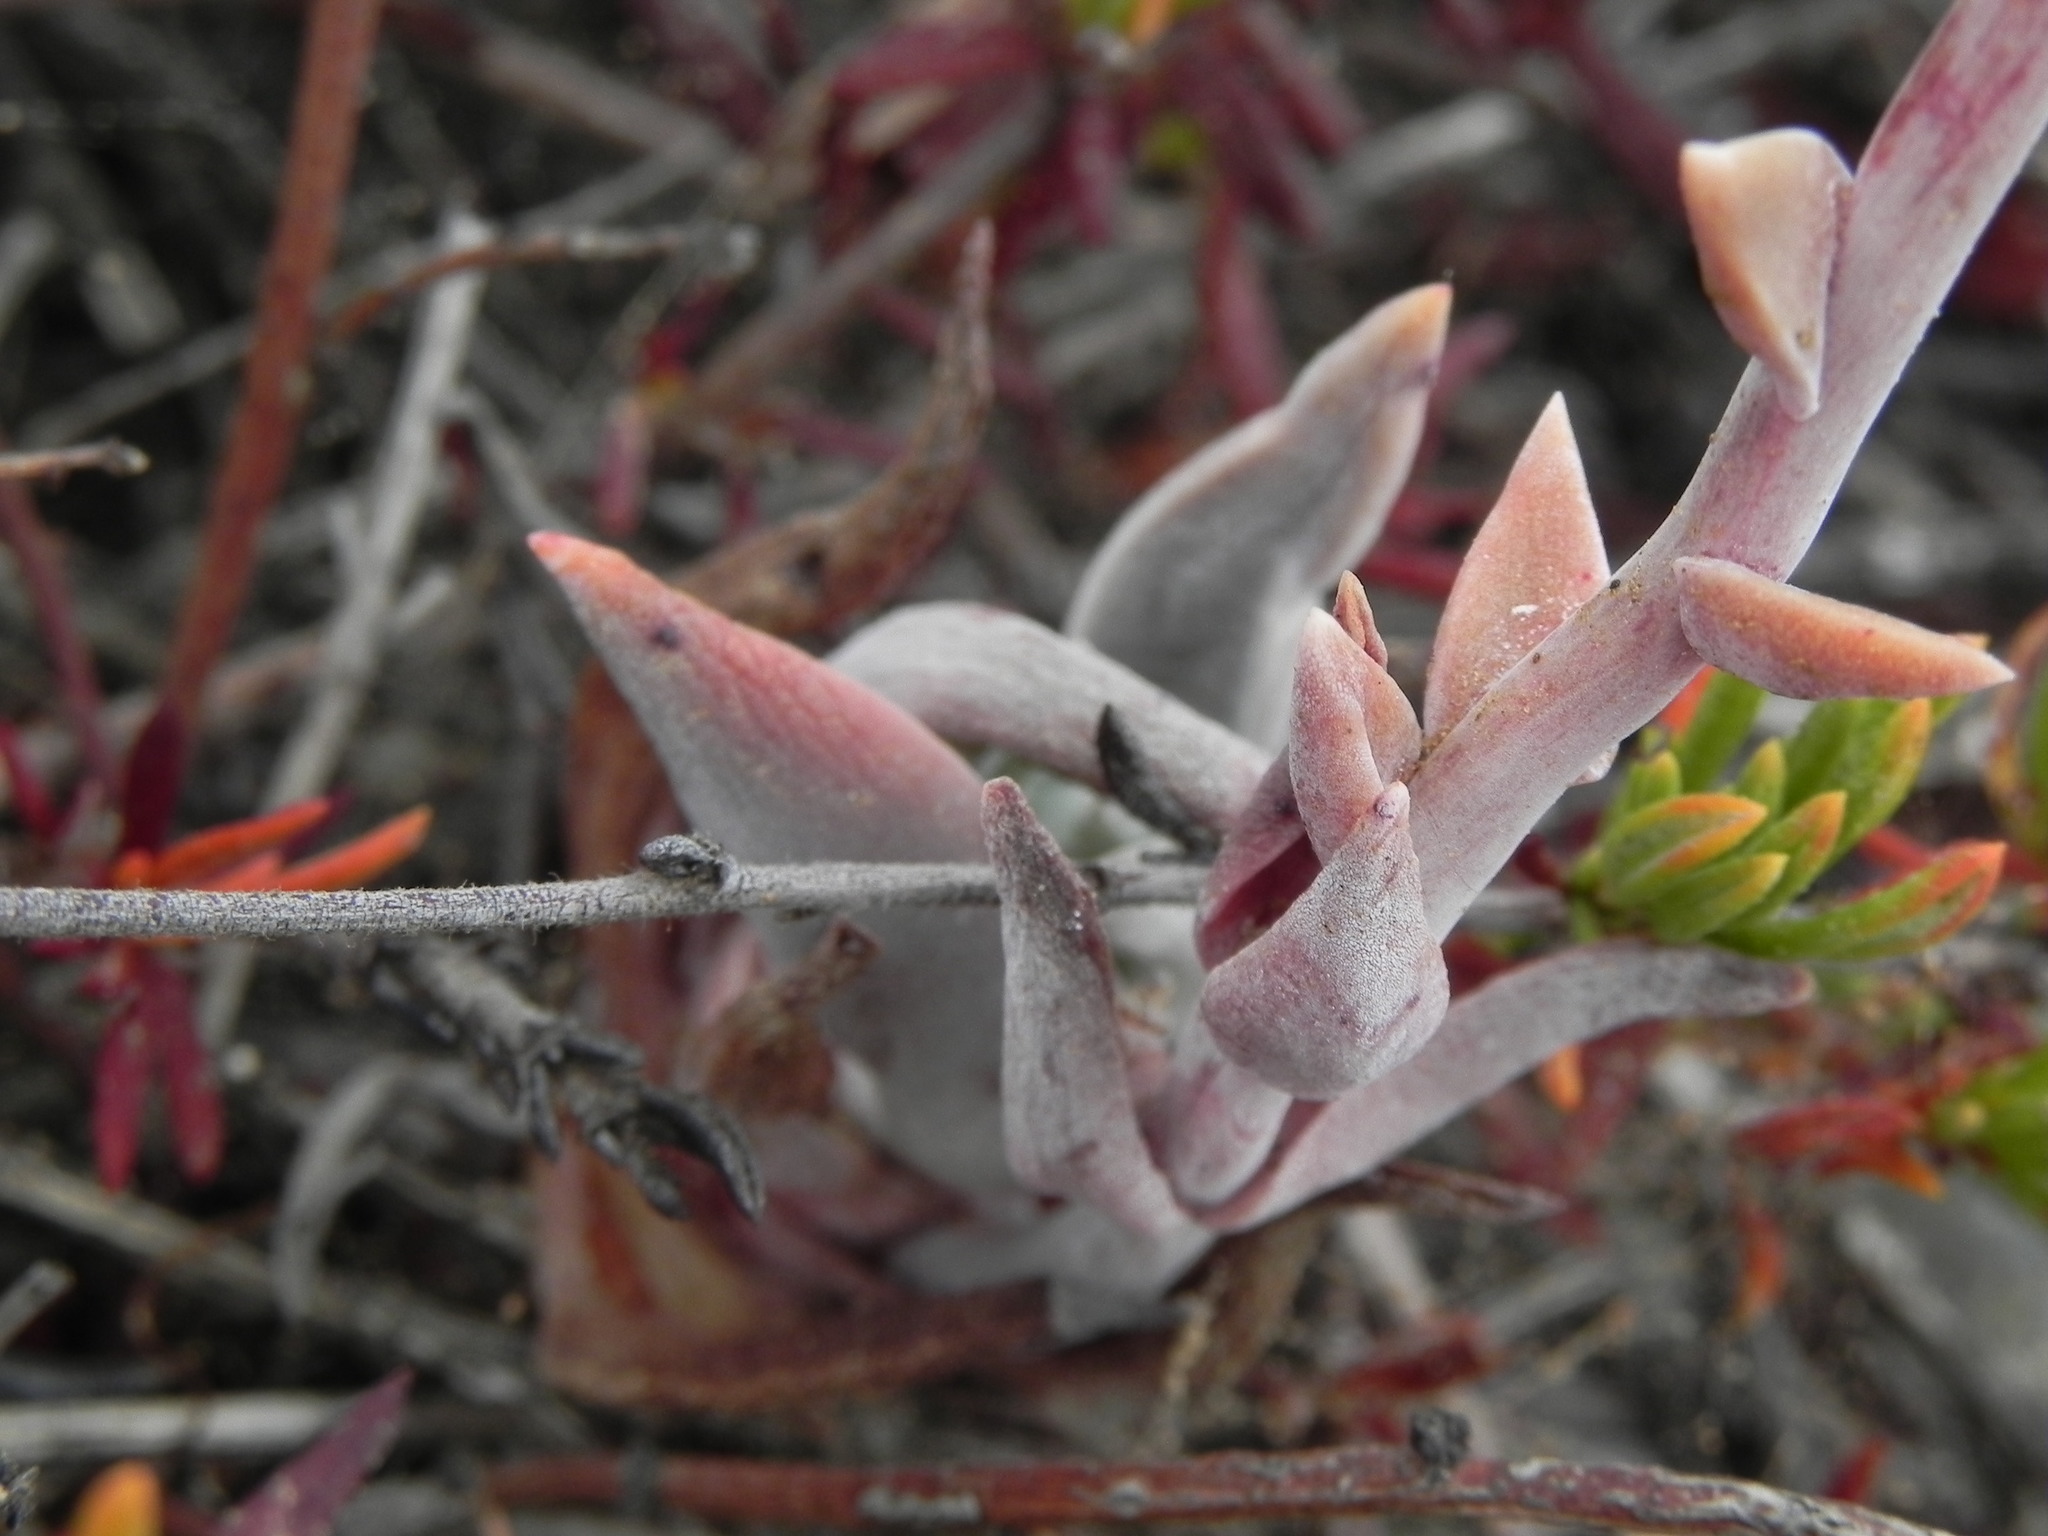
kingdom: Plantae
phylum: Tracheophyta
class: Magnoliopsida
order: Saxifragales
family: Crassulaceae
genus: Dudleya
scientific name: Dudleya caespitosa
